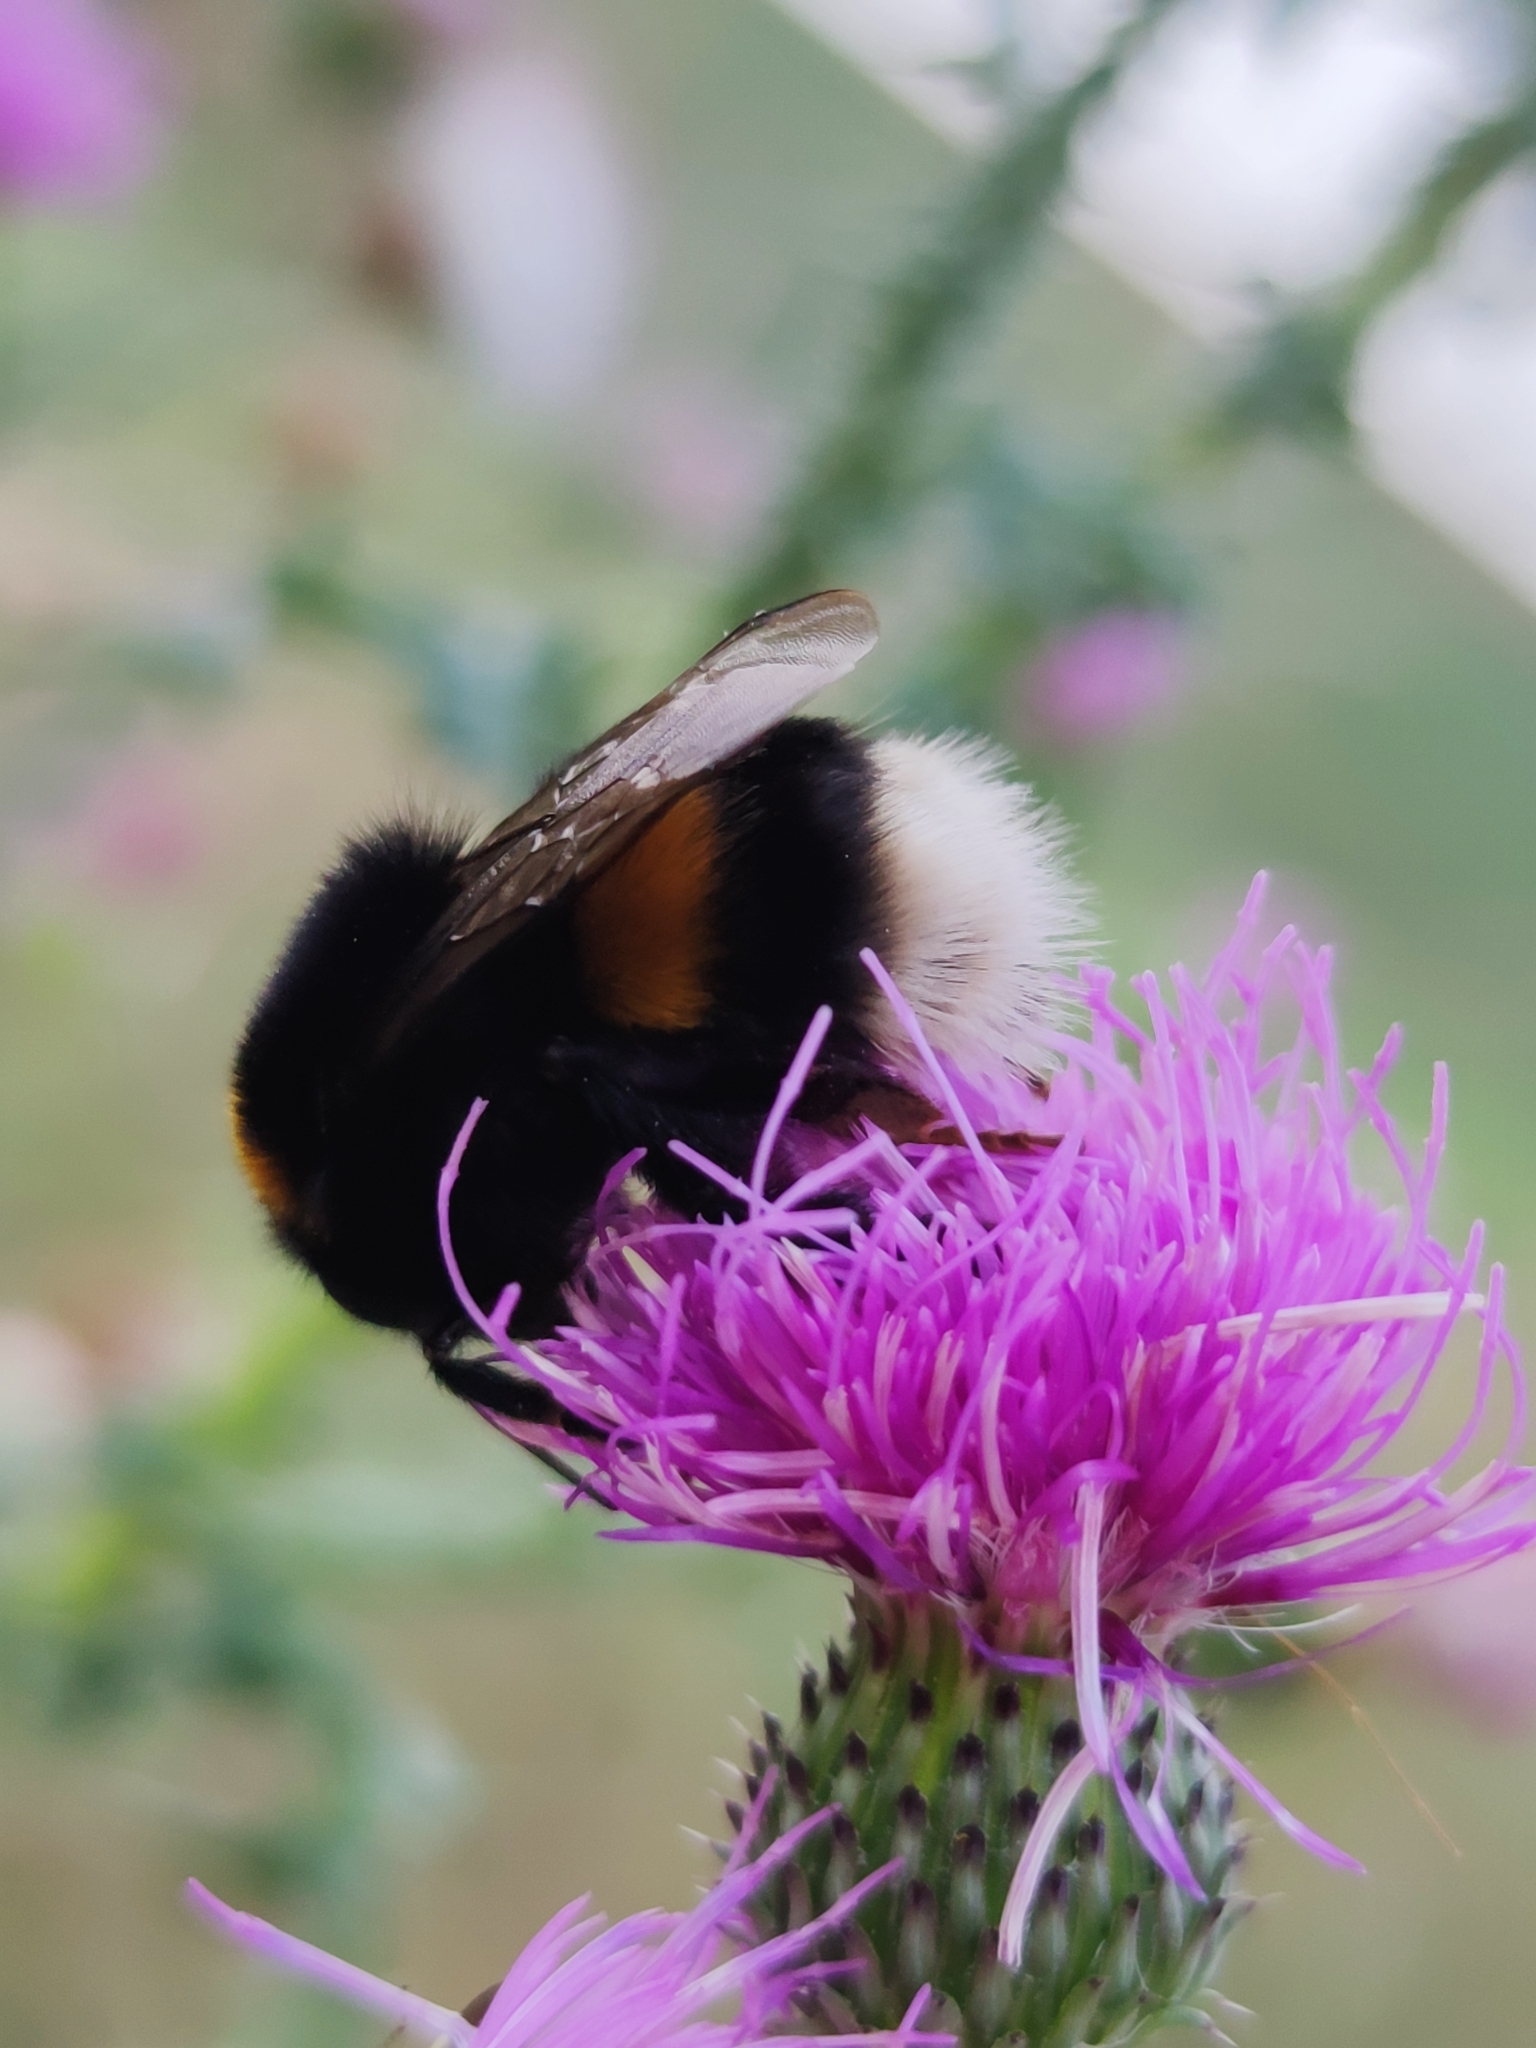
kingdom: Animalia
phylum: Arthropoda
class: Insecta
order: Hymenoptera
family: Apidae
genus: Bombus
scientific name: Bombus terrestris
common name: Buff-tailed bumblebee
